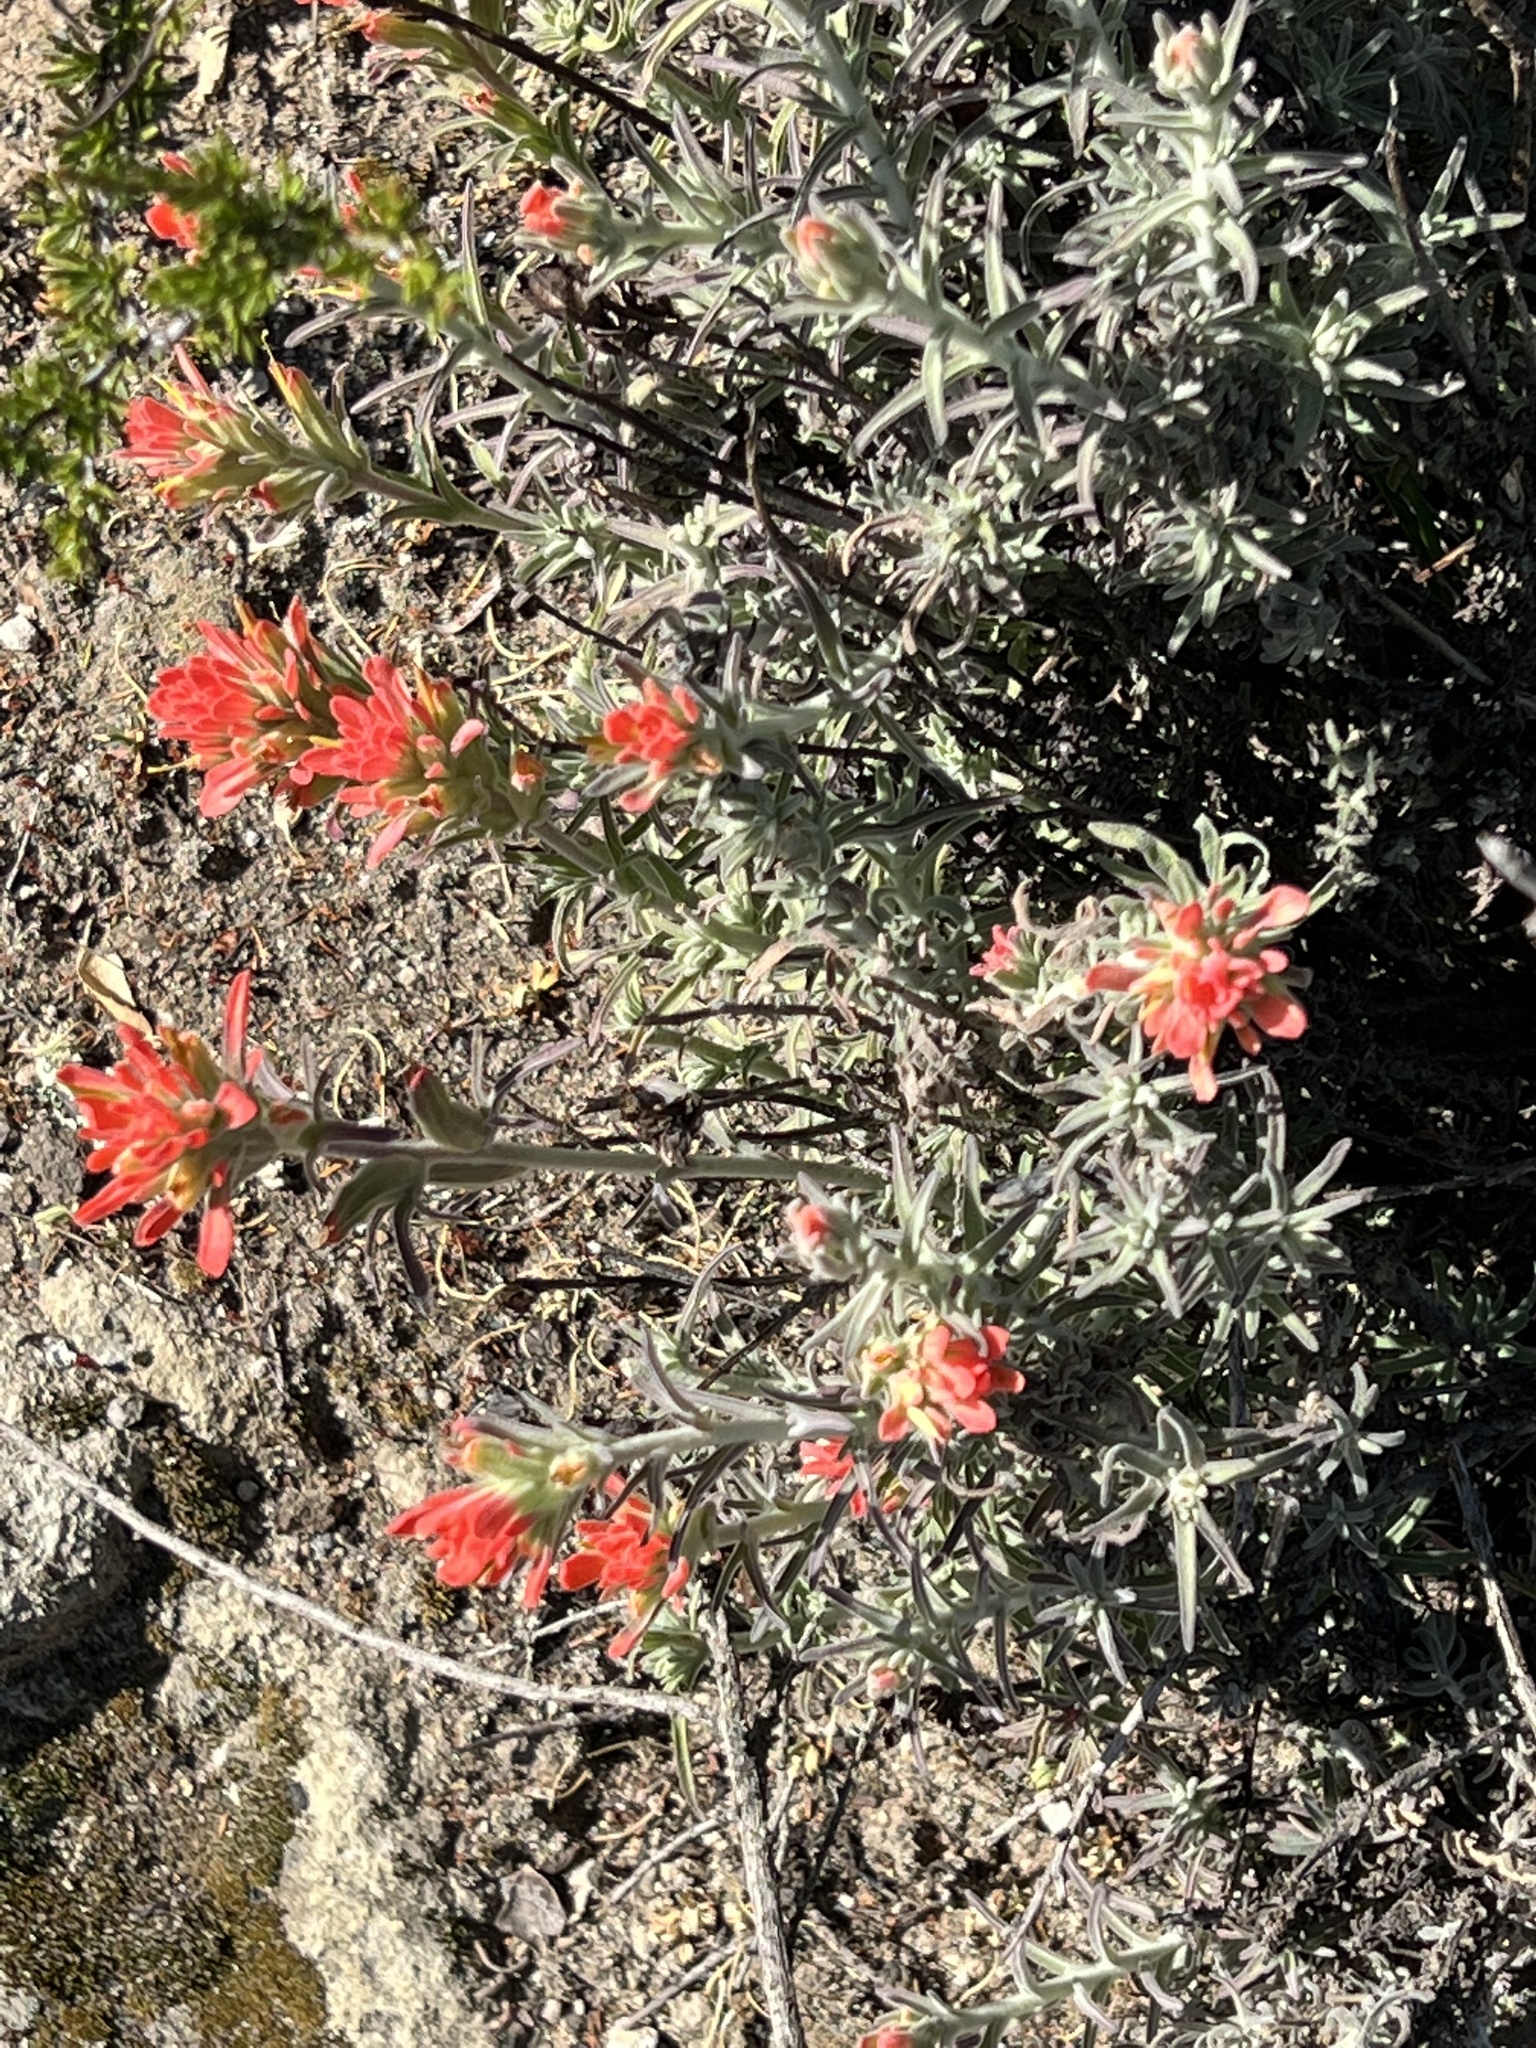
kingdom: Plantae
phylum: Tracheophyta
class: Magnoliopsida
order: Lamiales
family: Orobanchaceae
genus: Castilleja
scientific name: Castilleja foliolosa
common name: Woolly indian paintbrush
